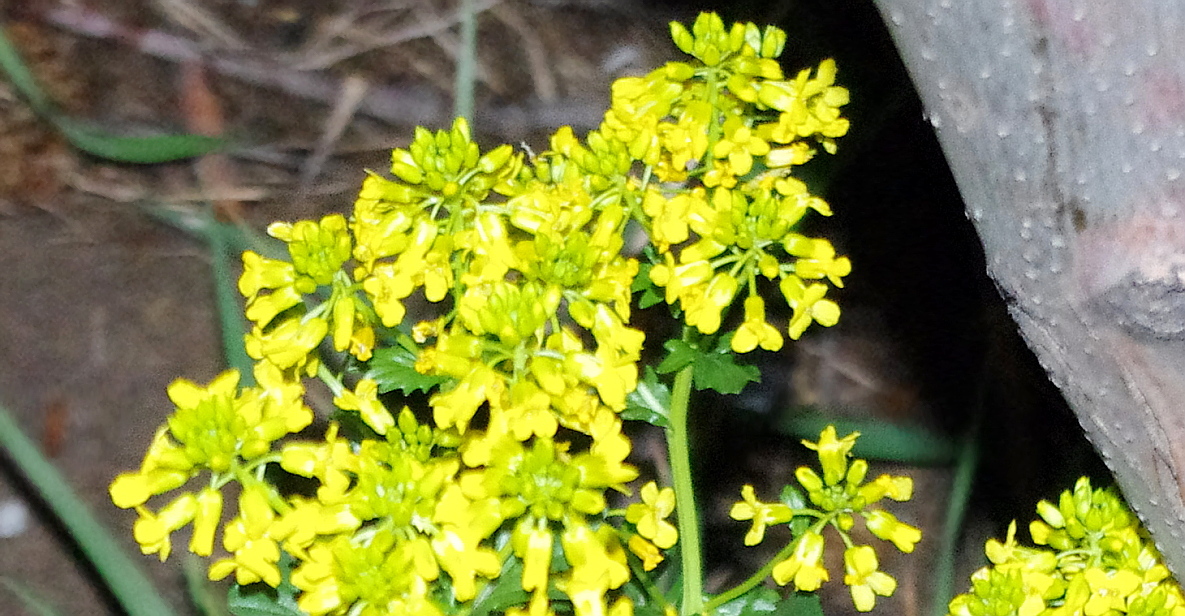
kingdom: Plantae
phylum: Tracheophyta
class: Magnoliopsida
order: Brassicales
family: Brassicaceae
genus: Barbarea
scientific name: Barbarea vulgaris
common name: Cressy-greens
